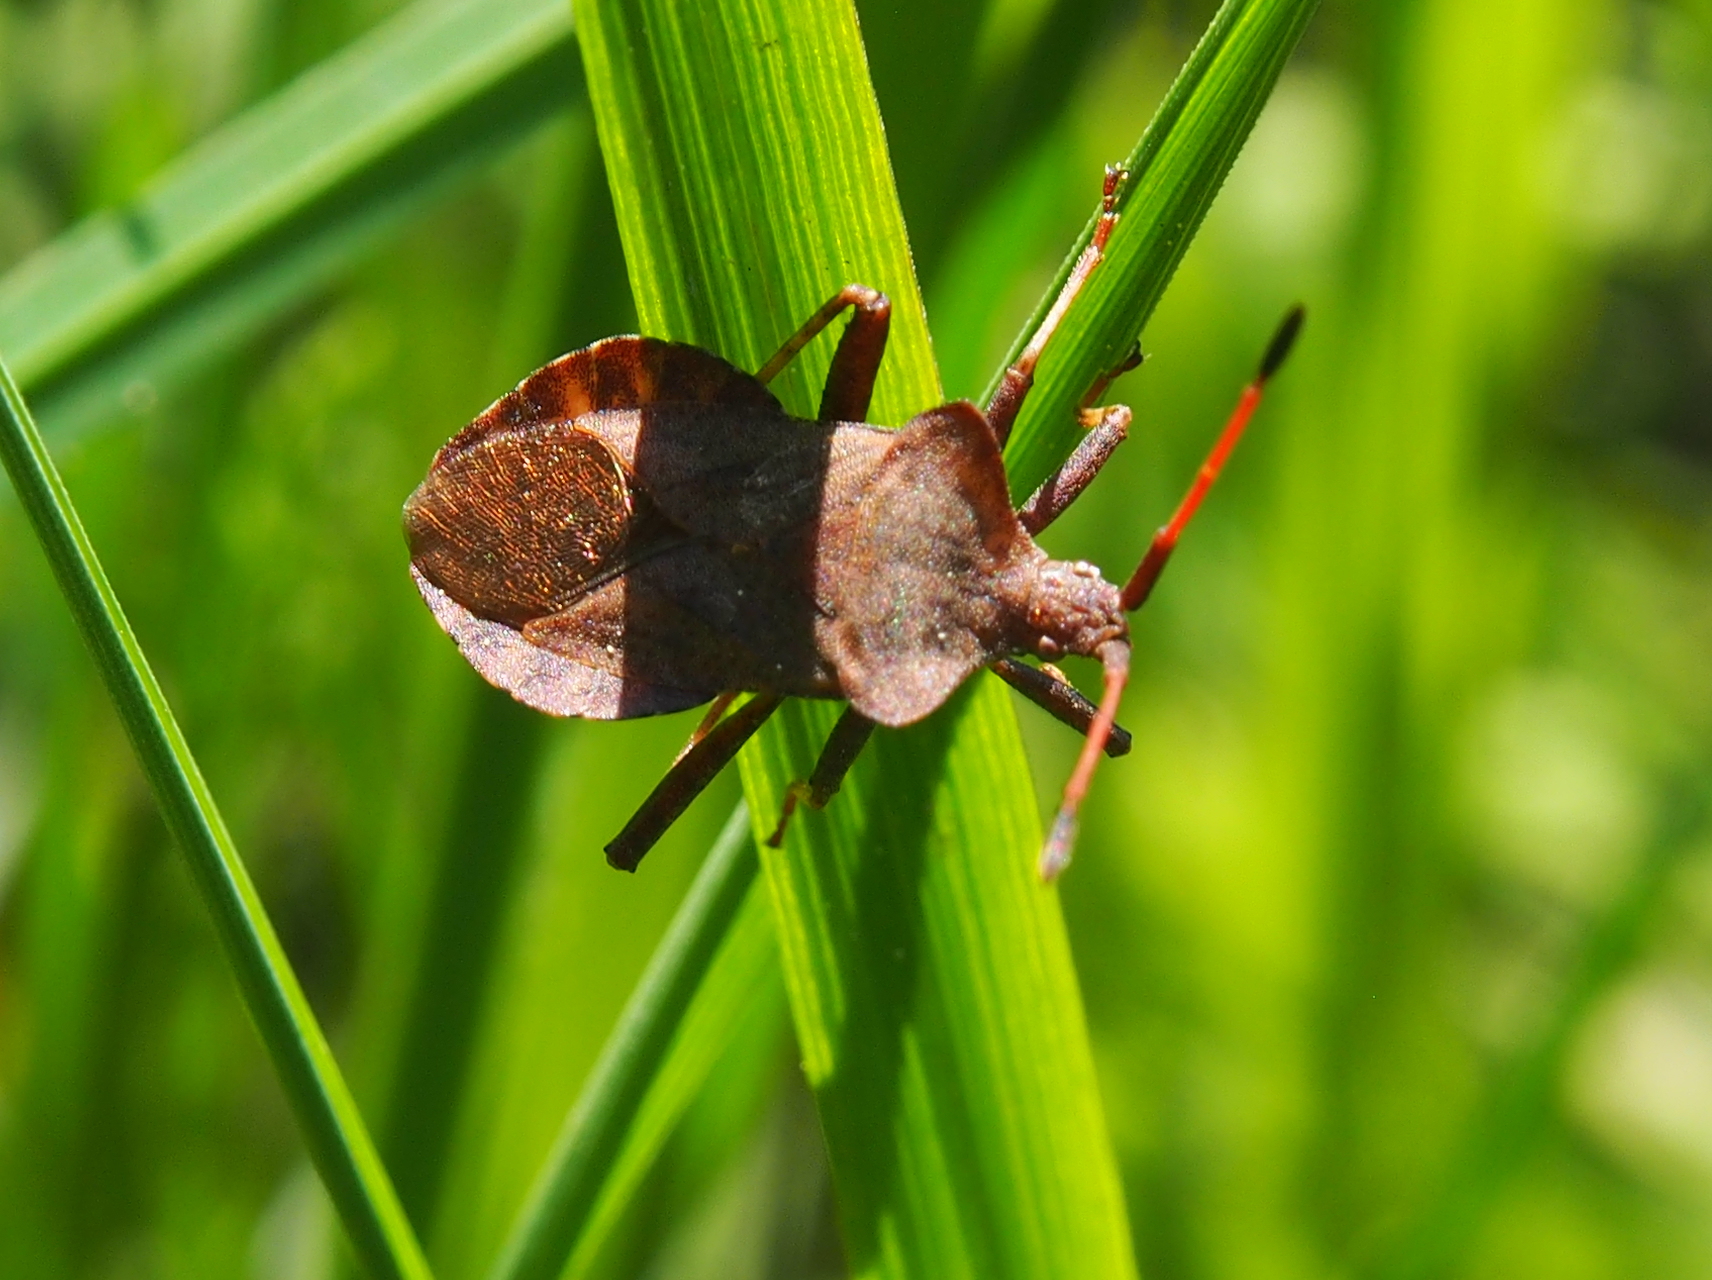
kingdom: Animalia
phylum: Arthropoda
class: Insecta
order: Hemiptera
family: Coreidae
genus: Coreus
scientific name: Coreus marginatus
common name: Dock bug
